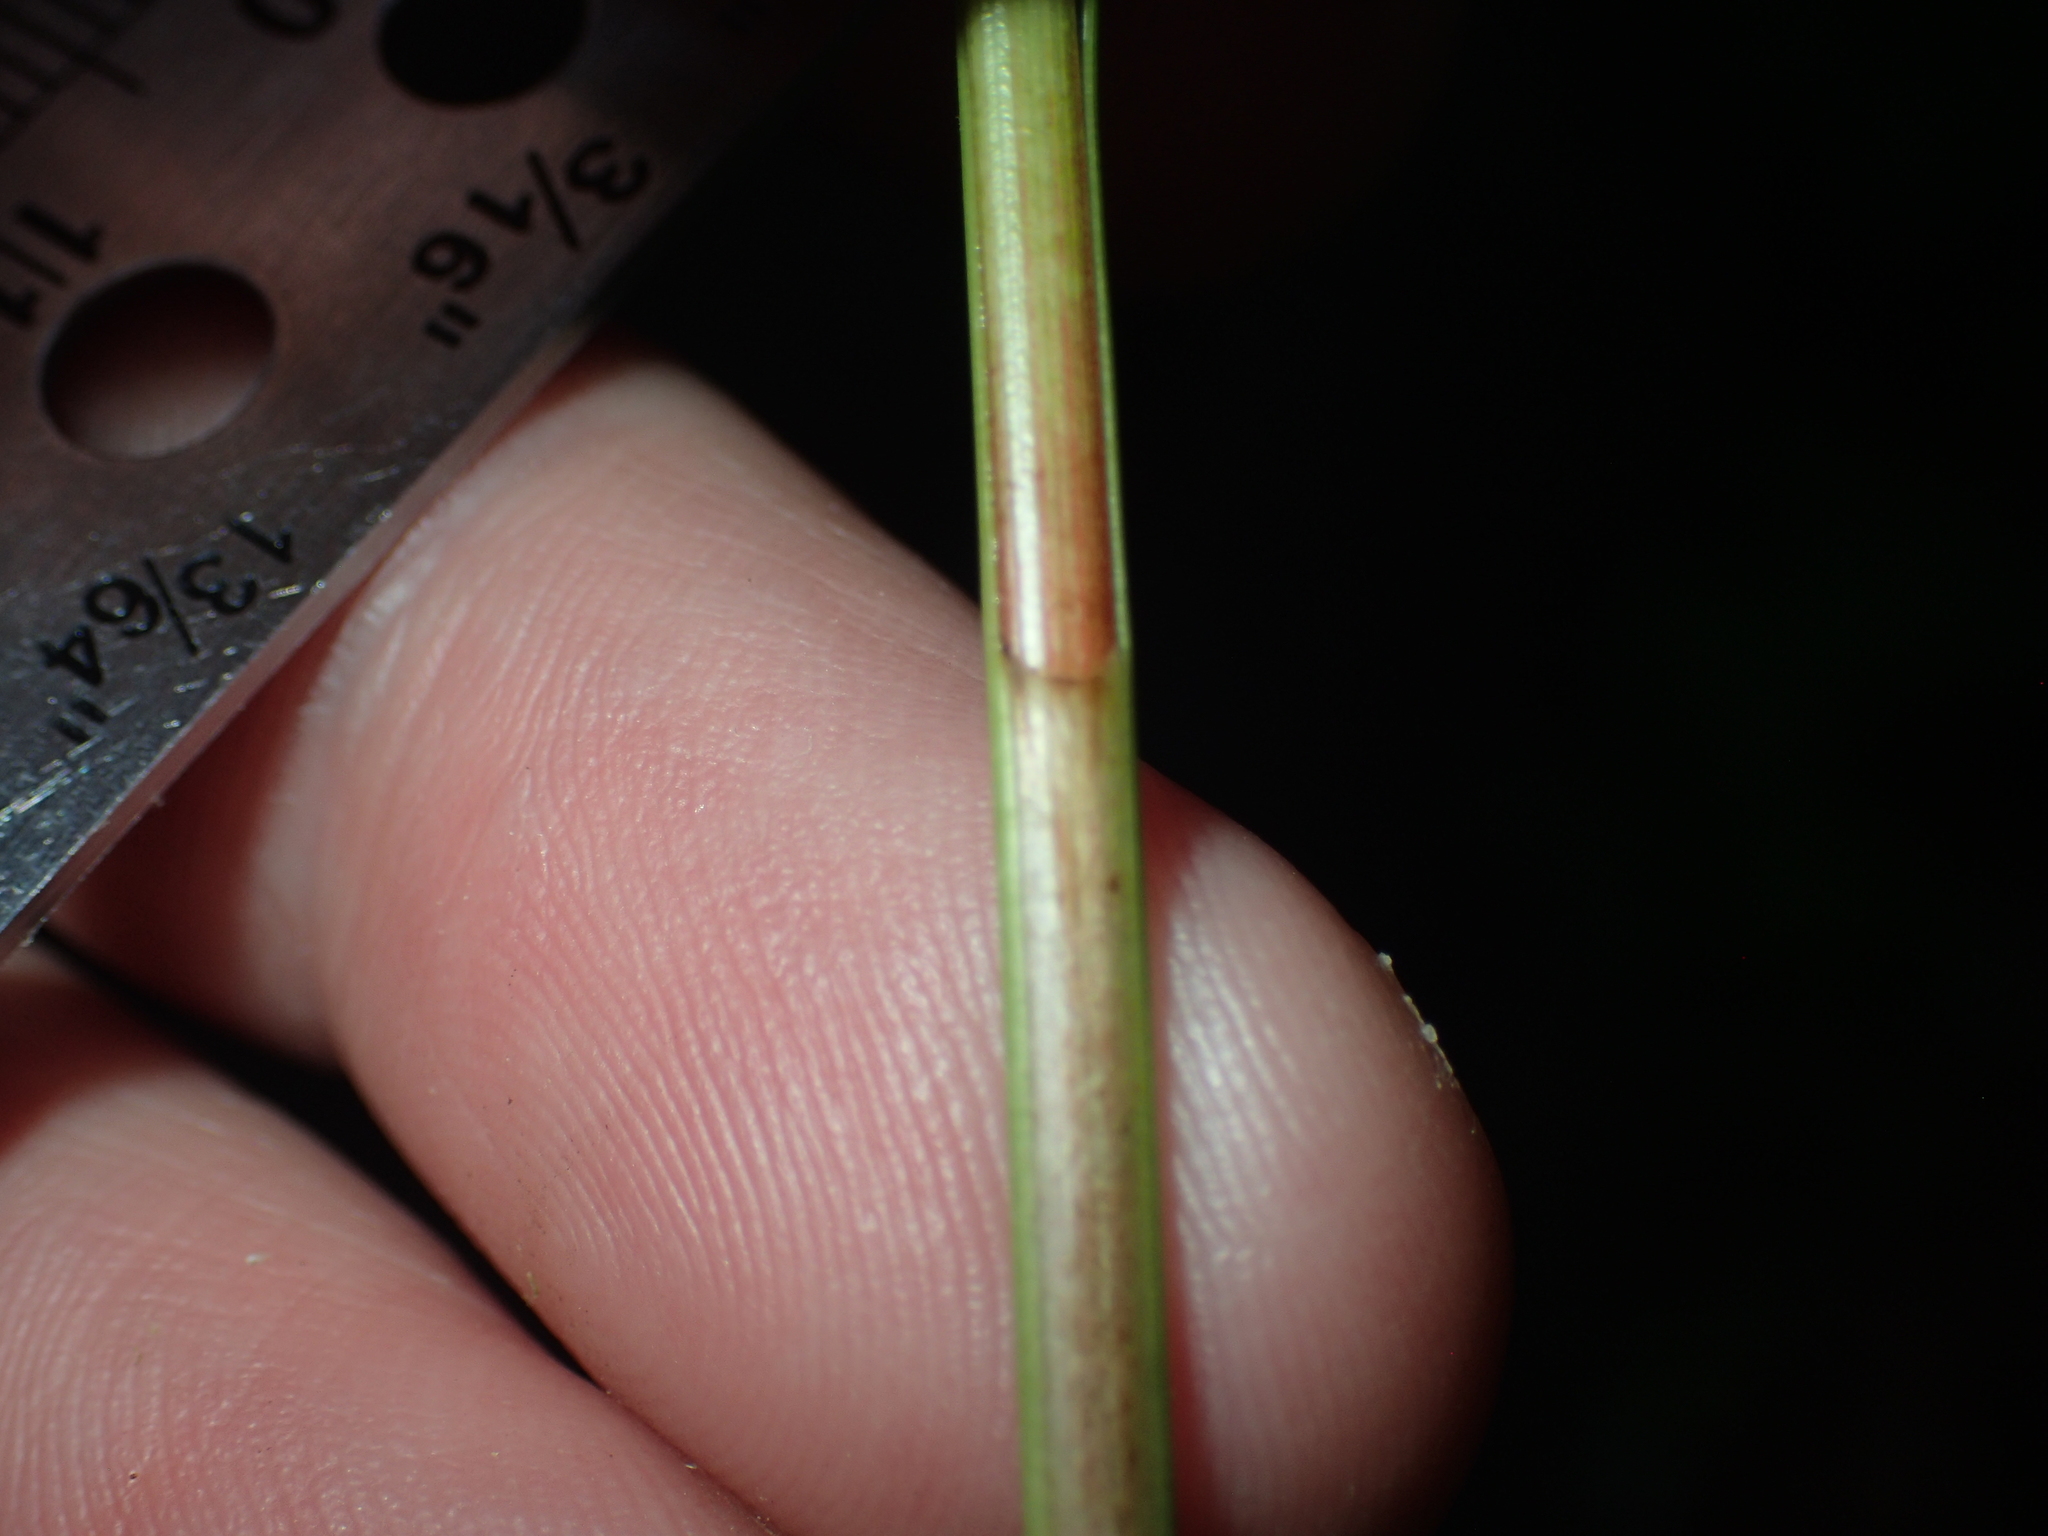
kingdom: Plantae
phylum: Tracheophyta
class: Liliopsida
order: Poales
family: Cyperaceae
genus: Carex
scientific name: Carex bullata
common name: Button sedge
